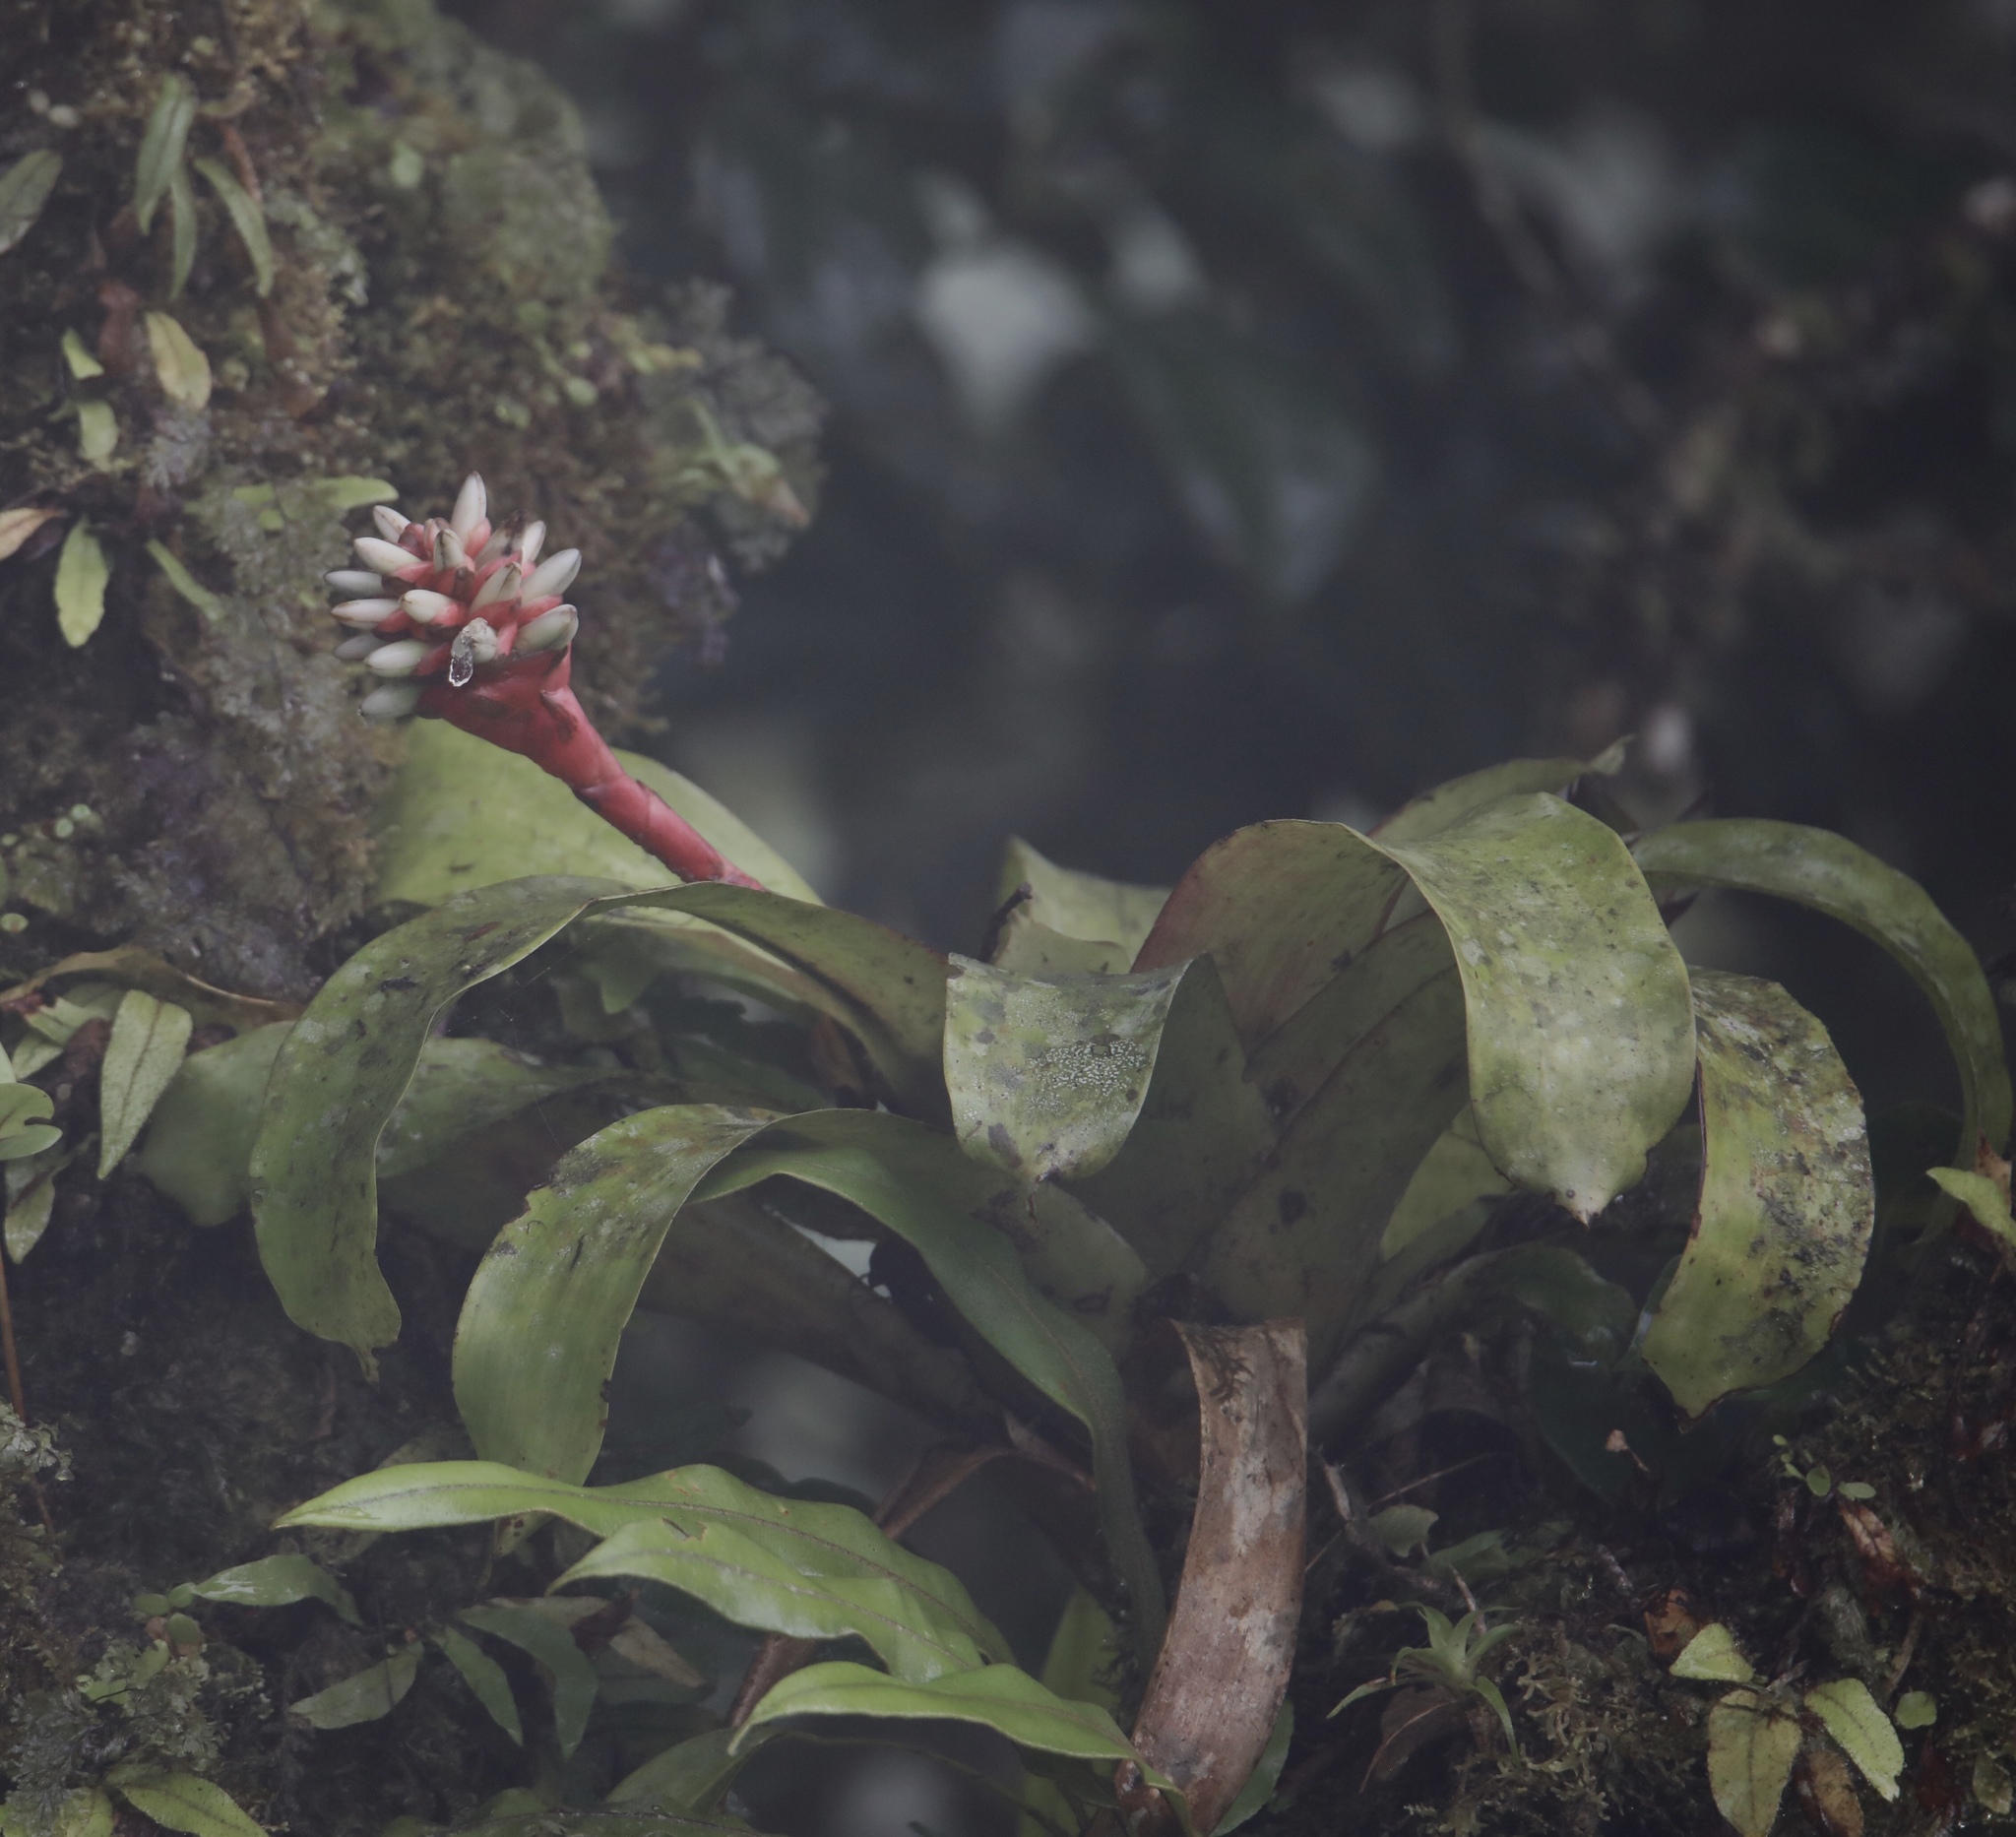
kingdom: Plantae
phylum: Tracheophyta
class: Liliopsida
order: Poales
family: Bromeliaceae
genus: Guzmania
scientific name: Guzmania musaica
